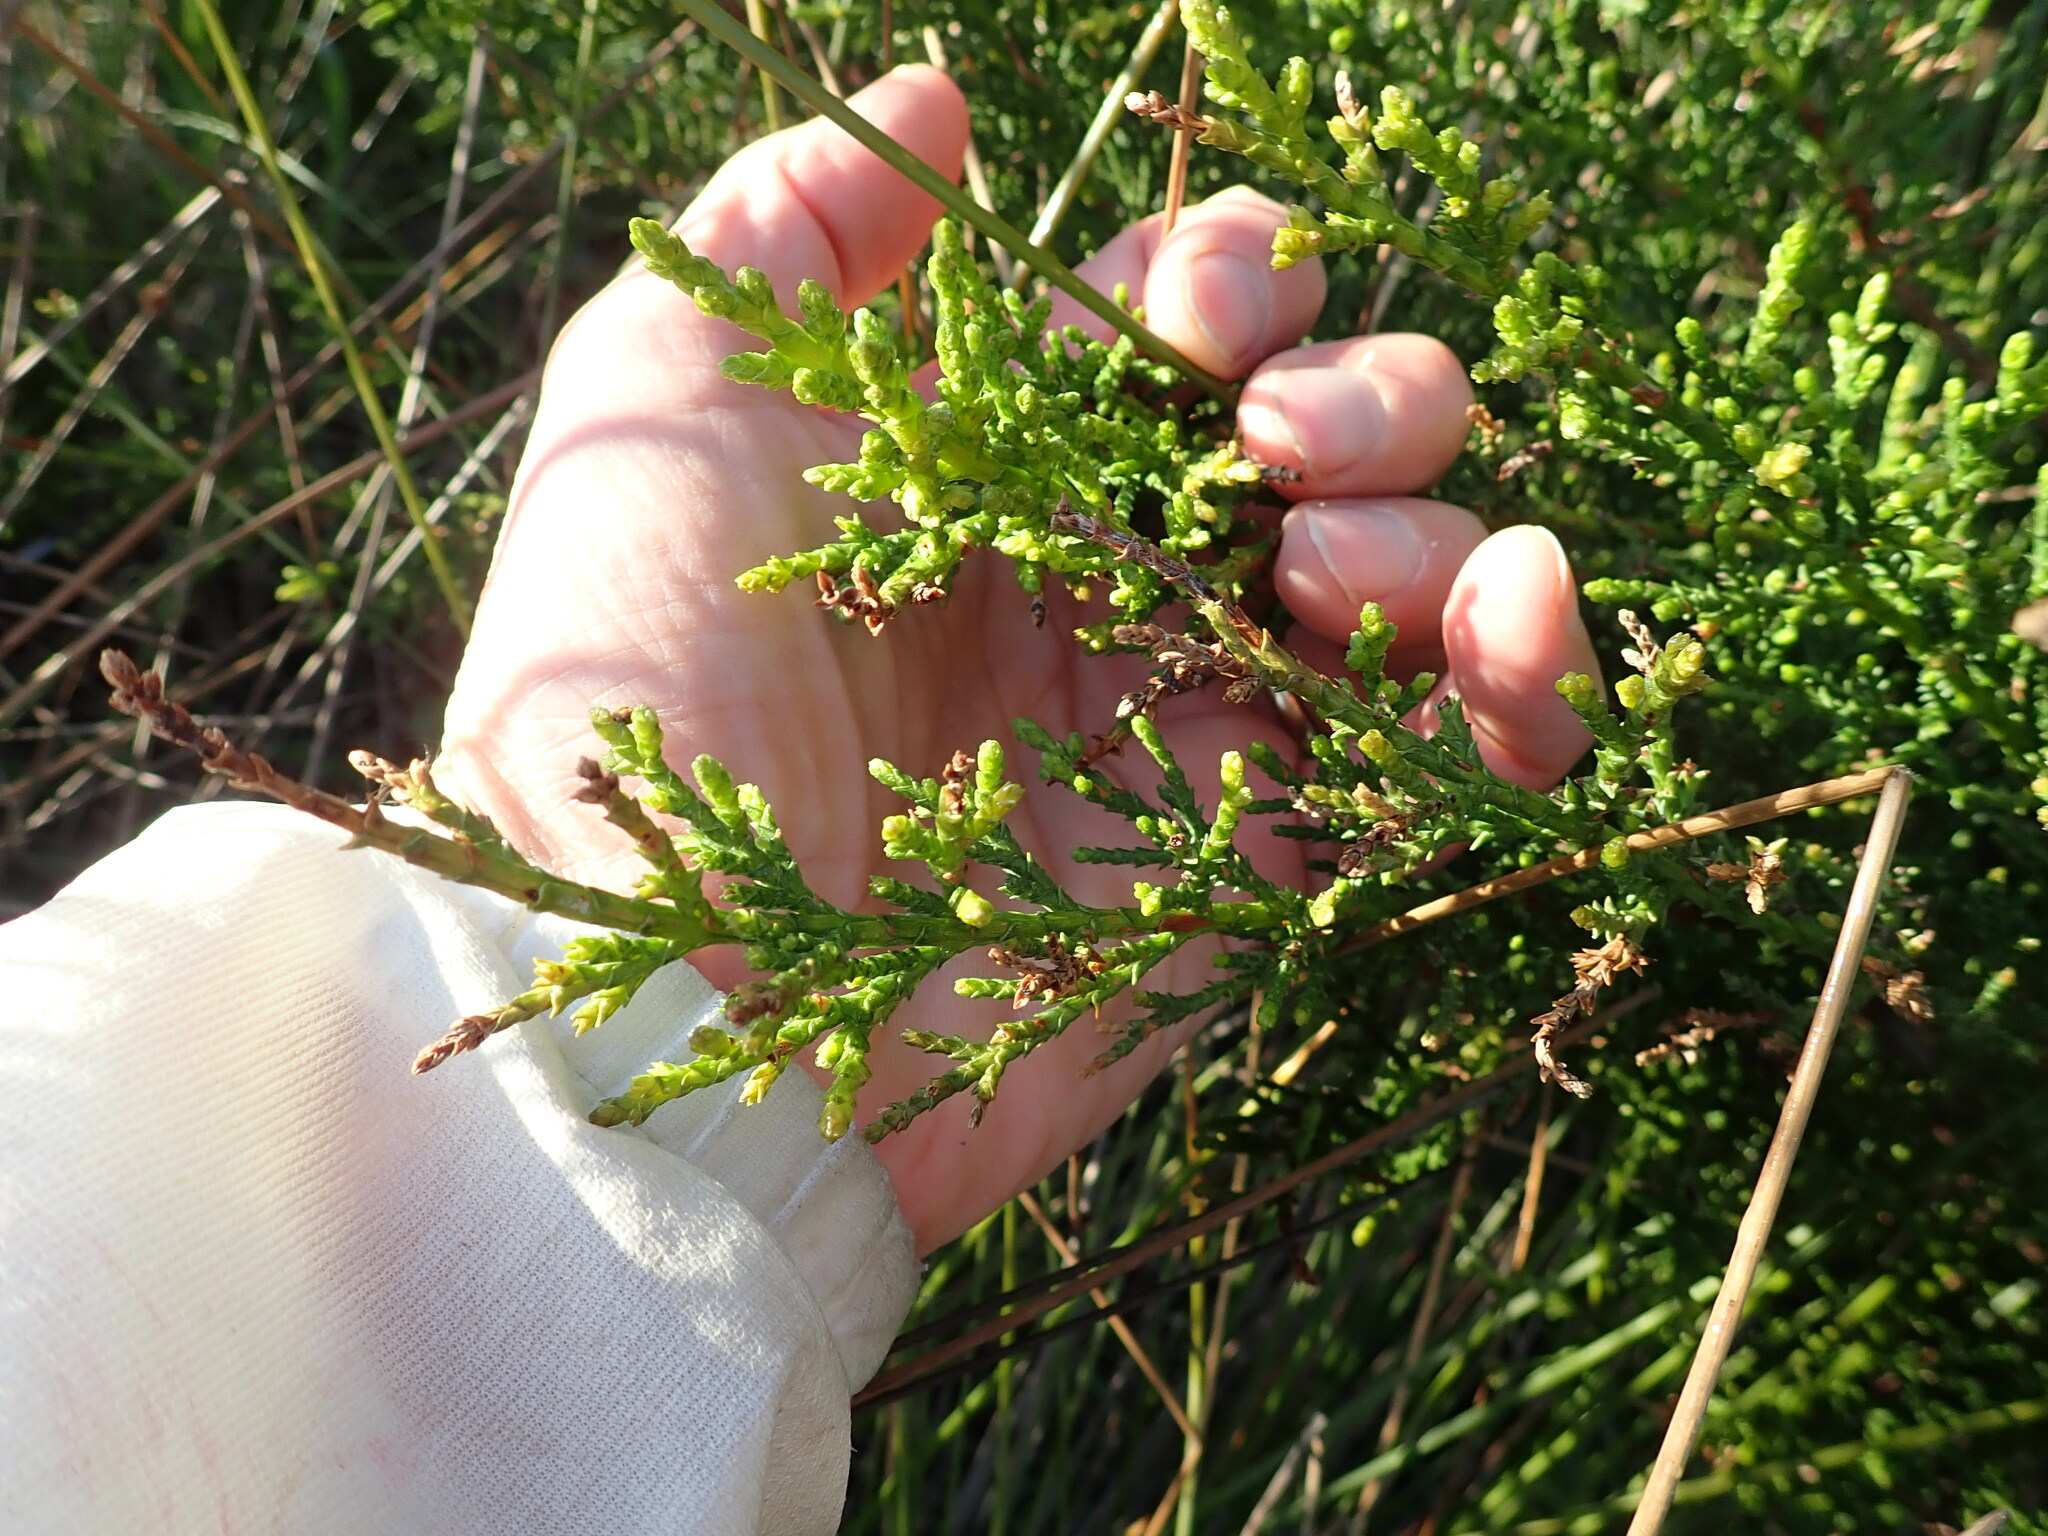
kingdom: Plantae
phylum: Tracheophyta
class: Pinopsida
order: Pinales
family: Cupressaceae
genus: Cupressus
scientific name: Cupressus macrocarpa
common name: Monterey cypress
